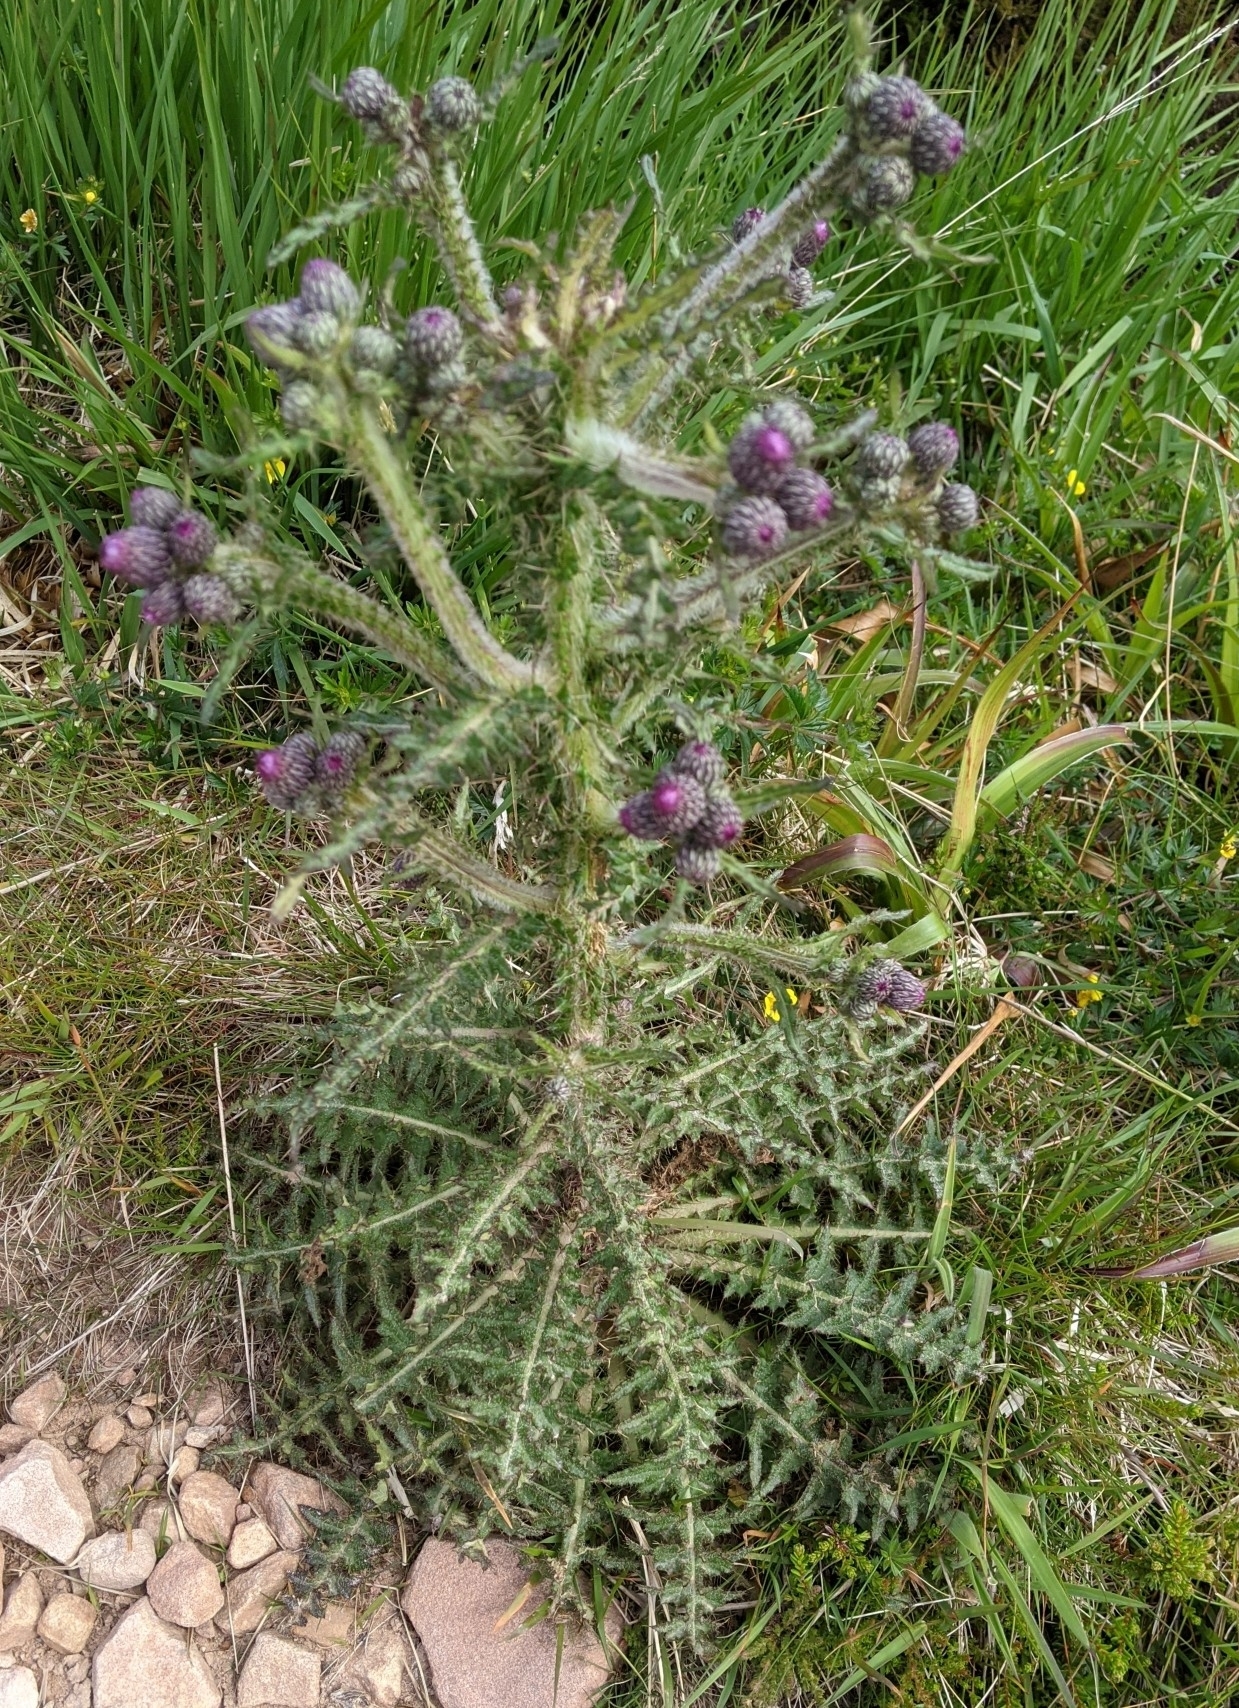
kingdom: Plantae
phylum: Tracheophyta
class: Magnoliopsida
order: Asterales
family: Asteraceae
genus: Cirsium
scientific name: Cirsium palustre
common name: Marsh thistle
